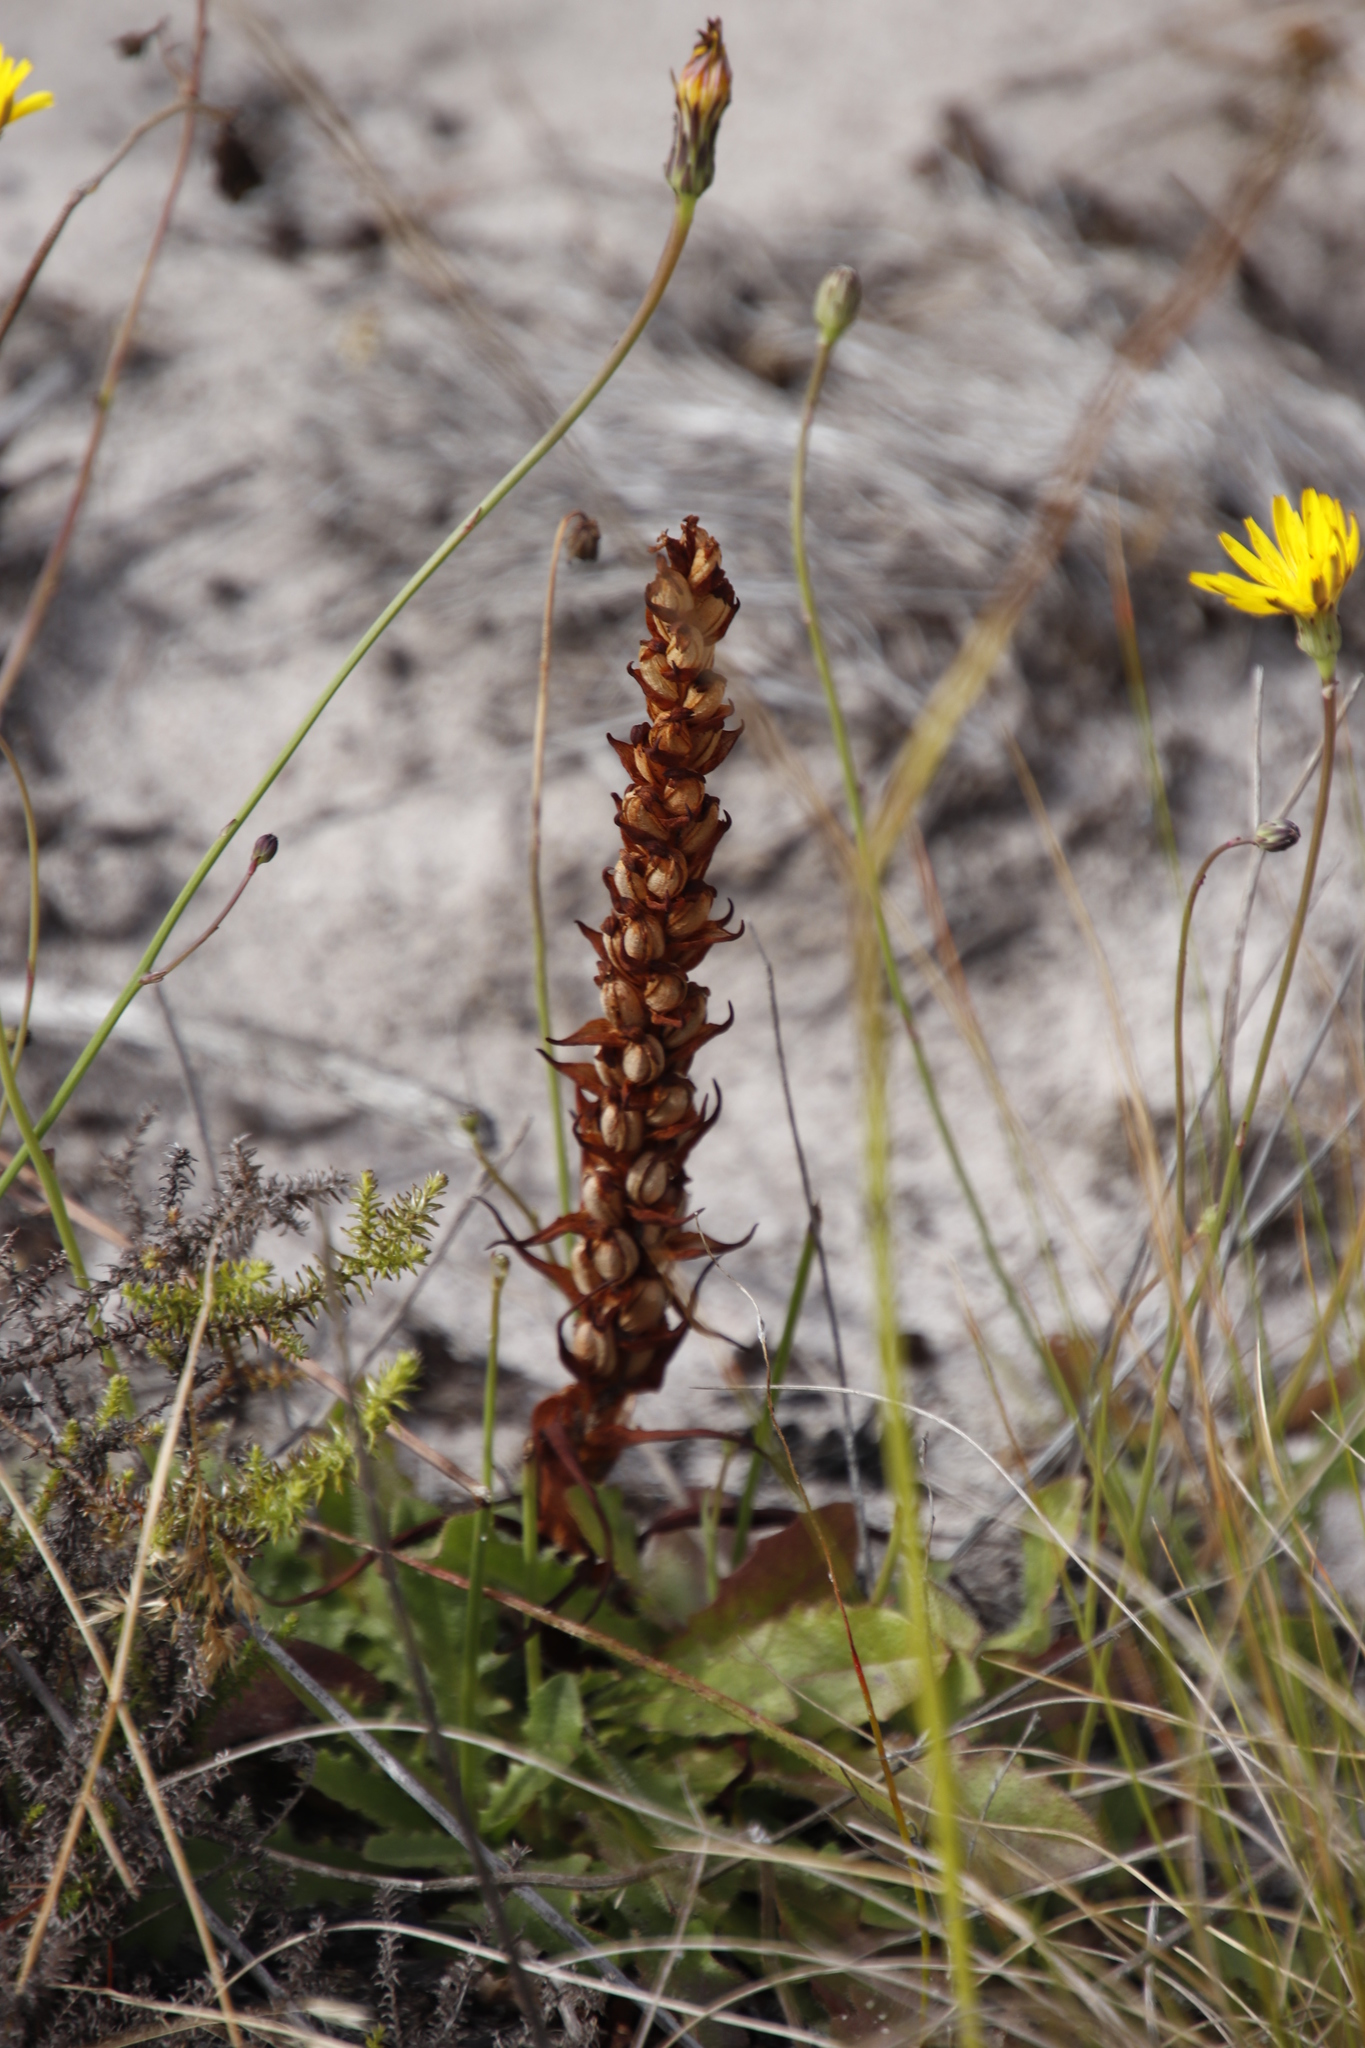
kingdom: Plantae
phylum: Tracheophyta
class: Liliopsida
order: Asparagales
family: Orchidaceae
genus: Disa
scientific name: Disa bracteata
